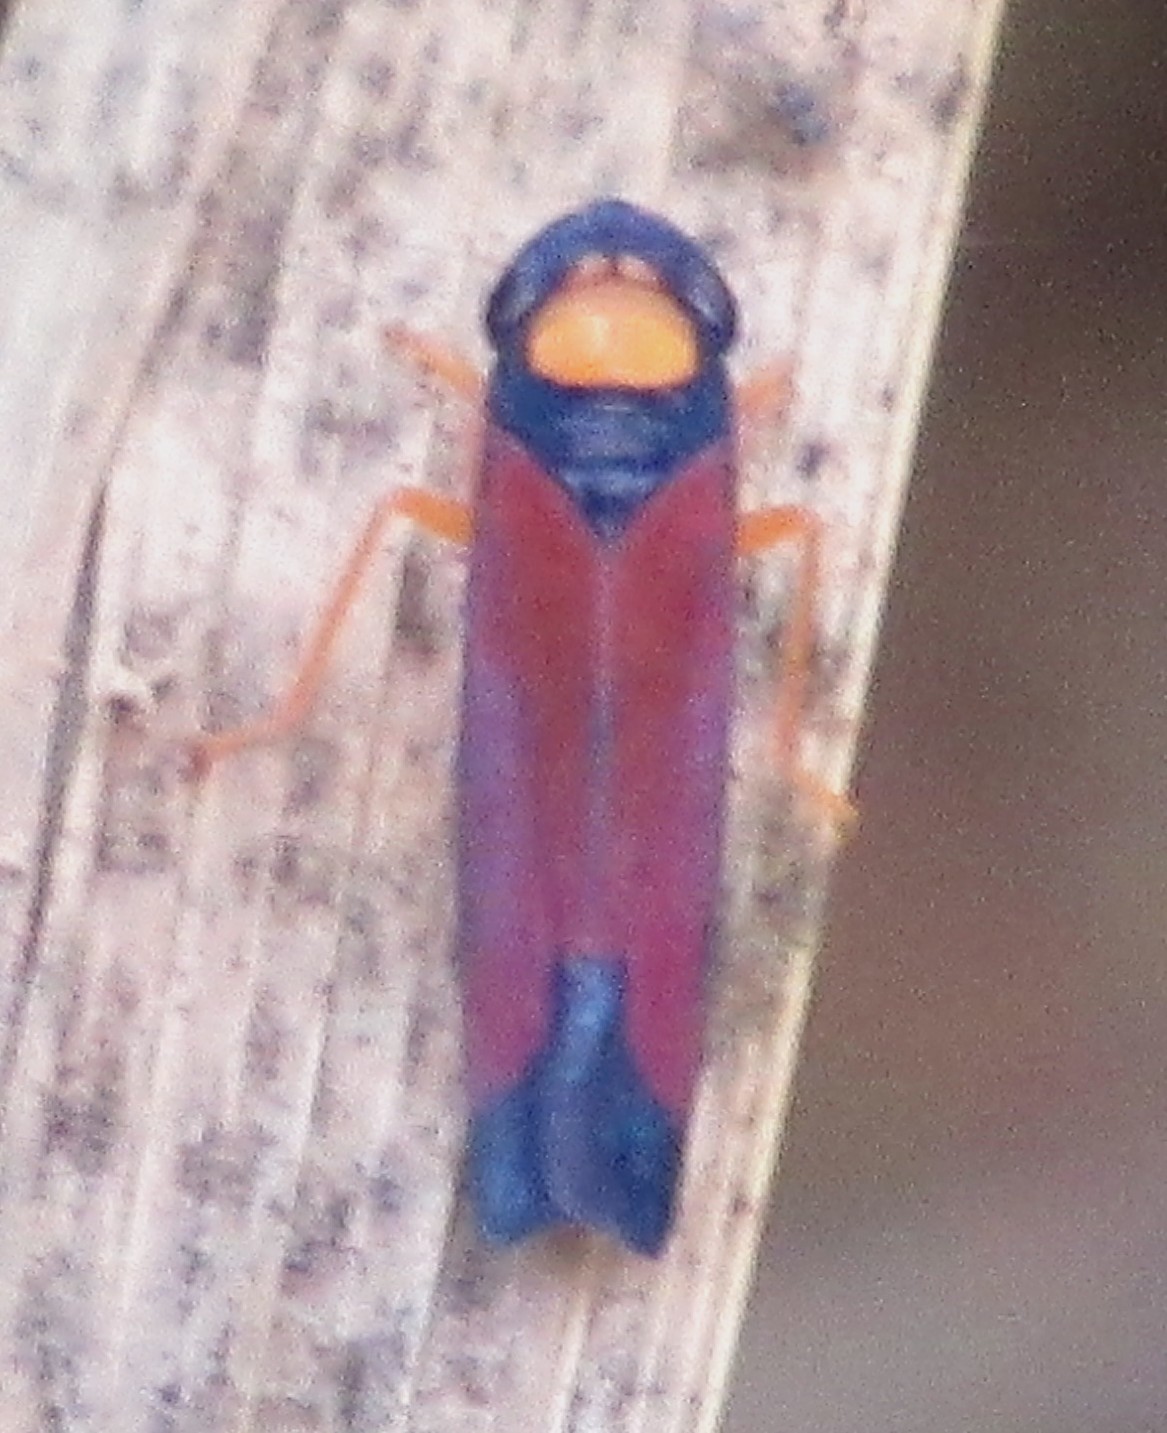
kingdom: Animalia
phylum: Arthropoda
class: Insecta
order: Hemiptera
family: Cicadellidae
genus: Erythrogonia
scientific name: Erythrogonia victori
